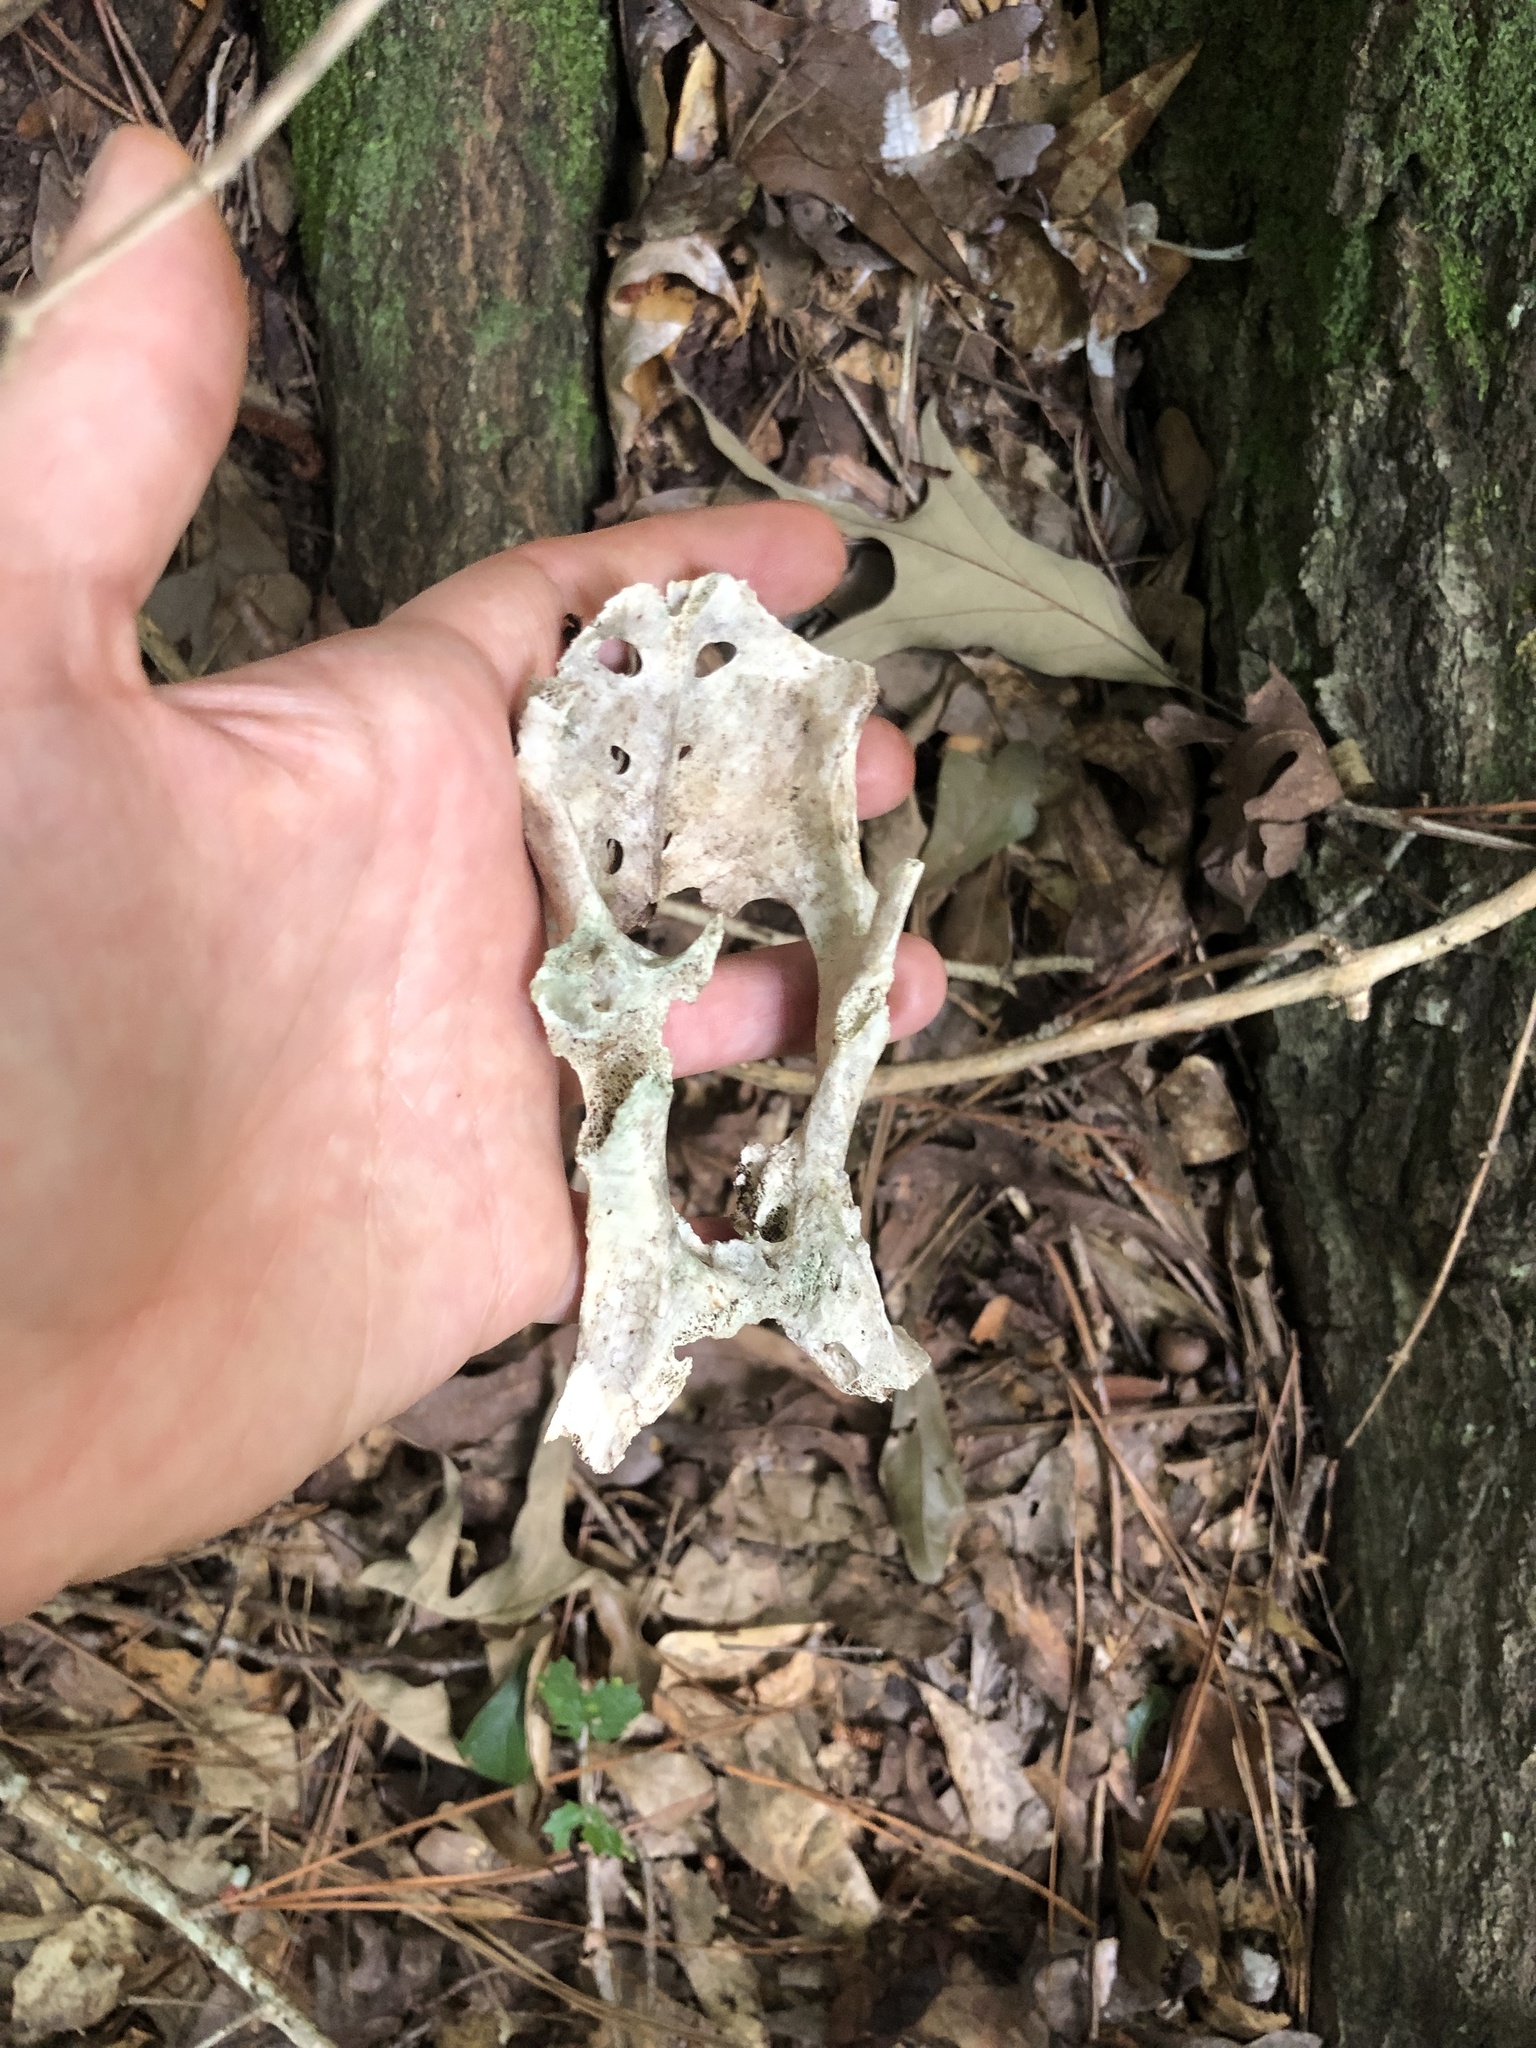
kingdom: Animalia
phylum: Chordata
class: Mammalia
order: Cingulata
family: Dasypodidae
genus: Dasypus
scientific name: Dasypus novemcinctus
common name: Nine-banded armadillo
